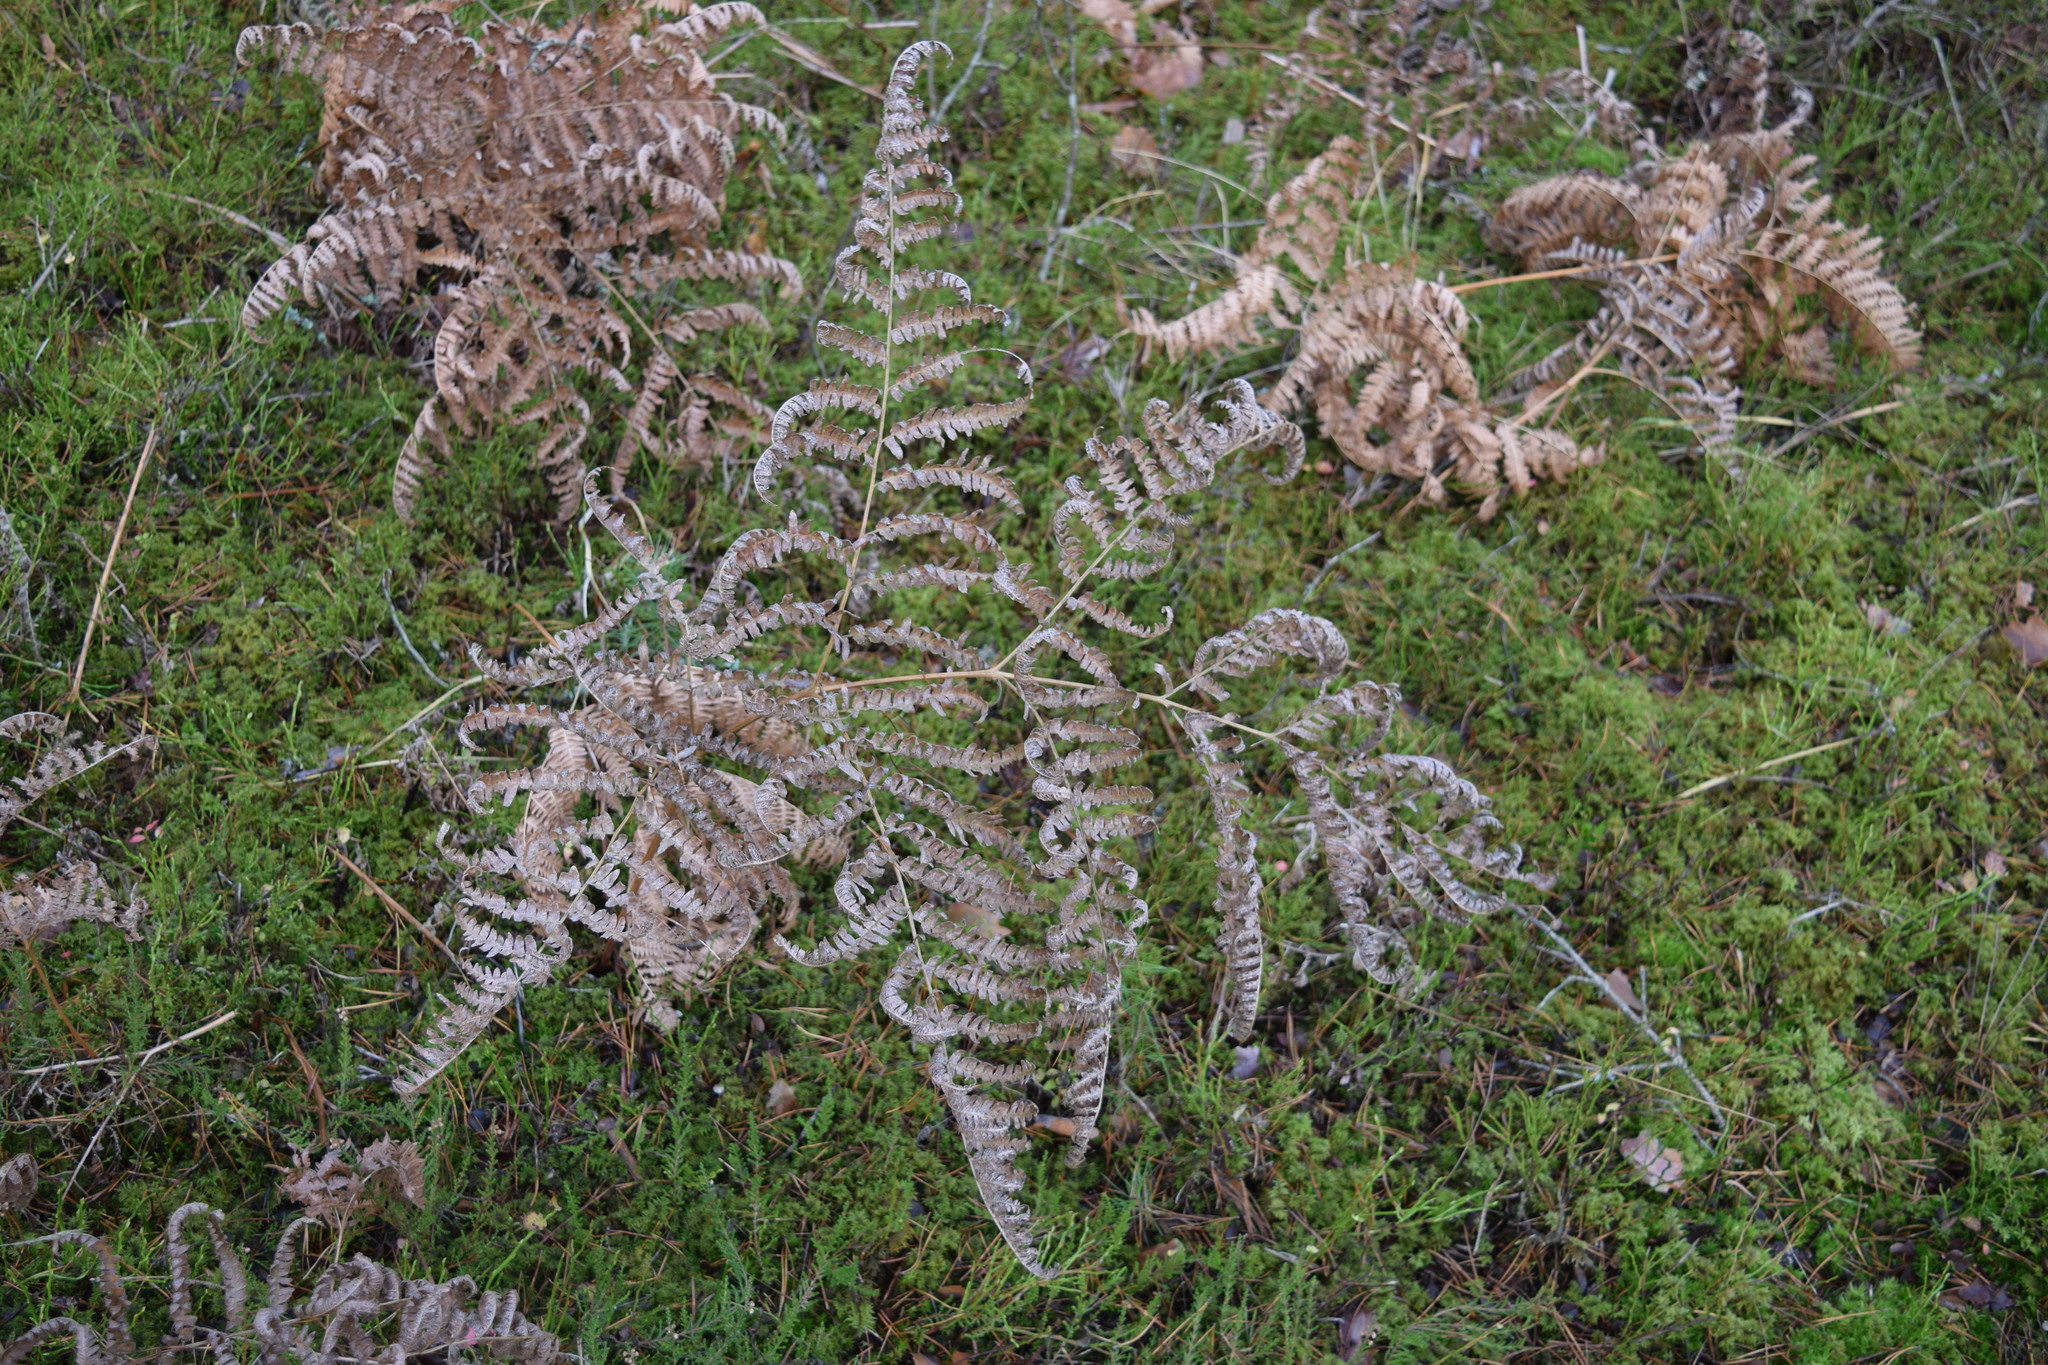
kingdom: Plantae
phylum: Tracheophyta
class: Polypodiopsida
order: Polypodiales
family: Dennstaedtiaceae
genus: Pteridium
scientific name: Pteridium aquilinum
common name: Bracken
